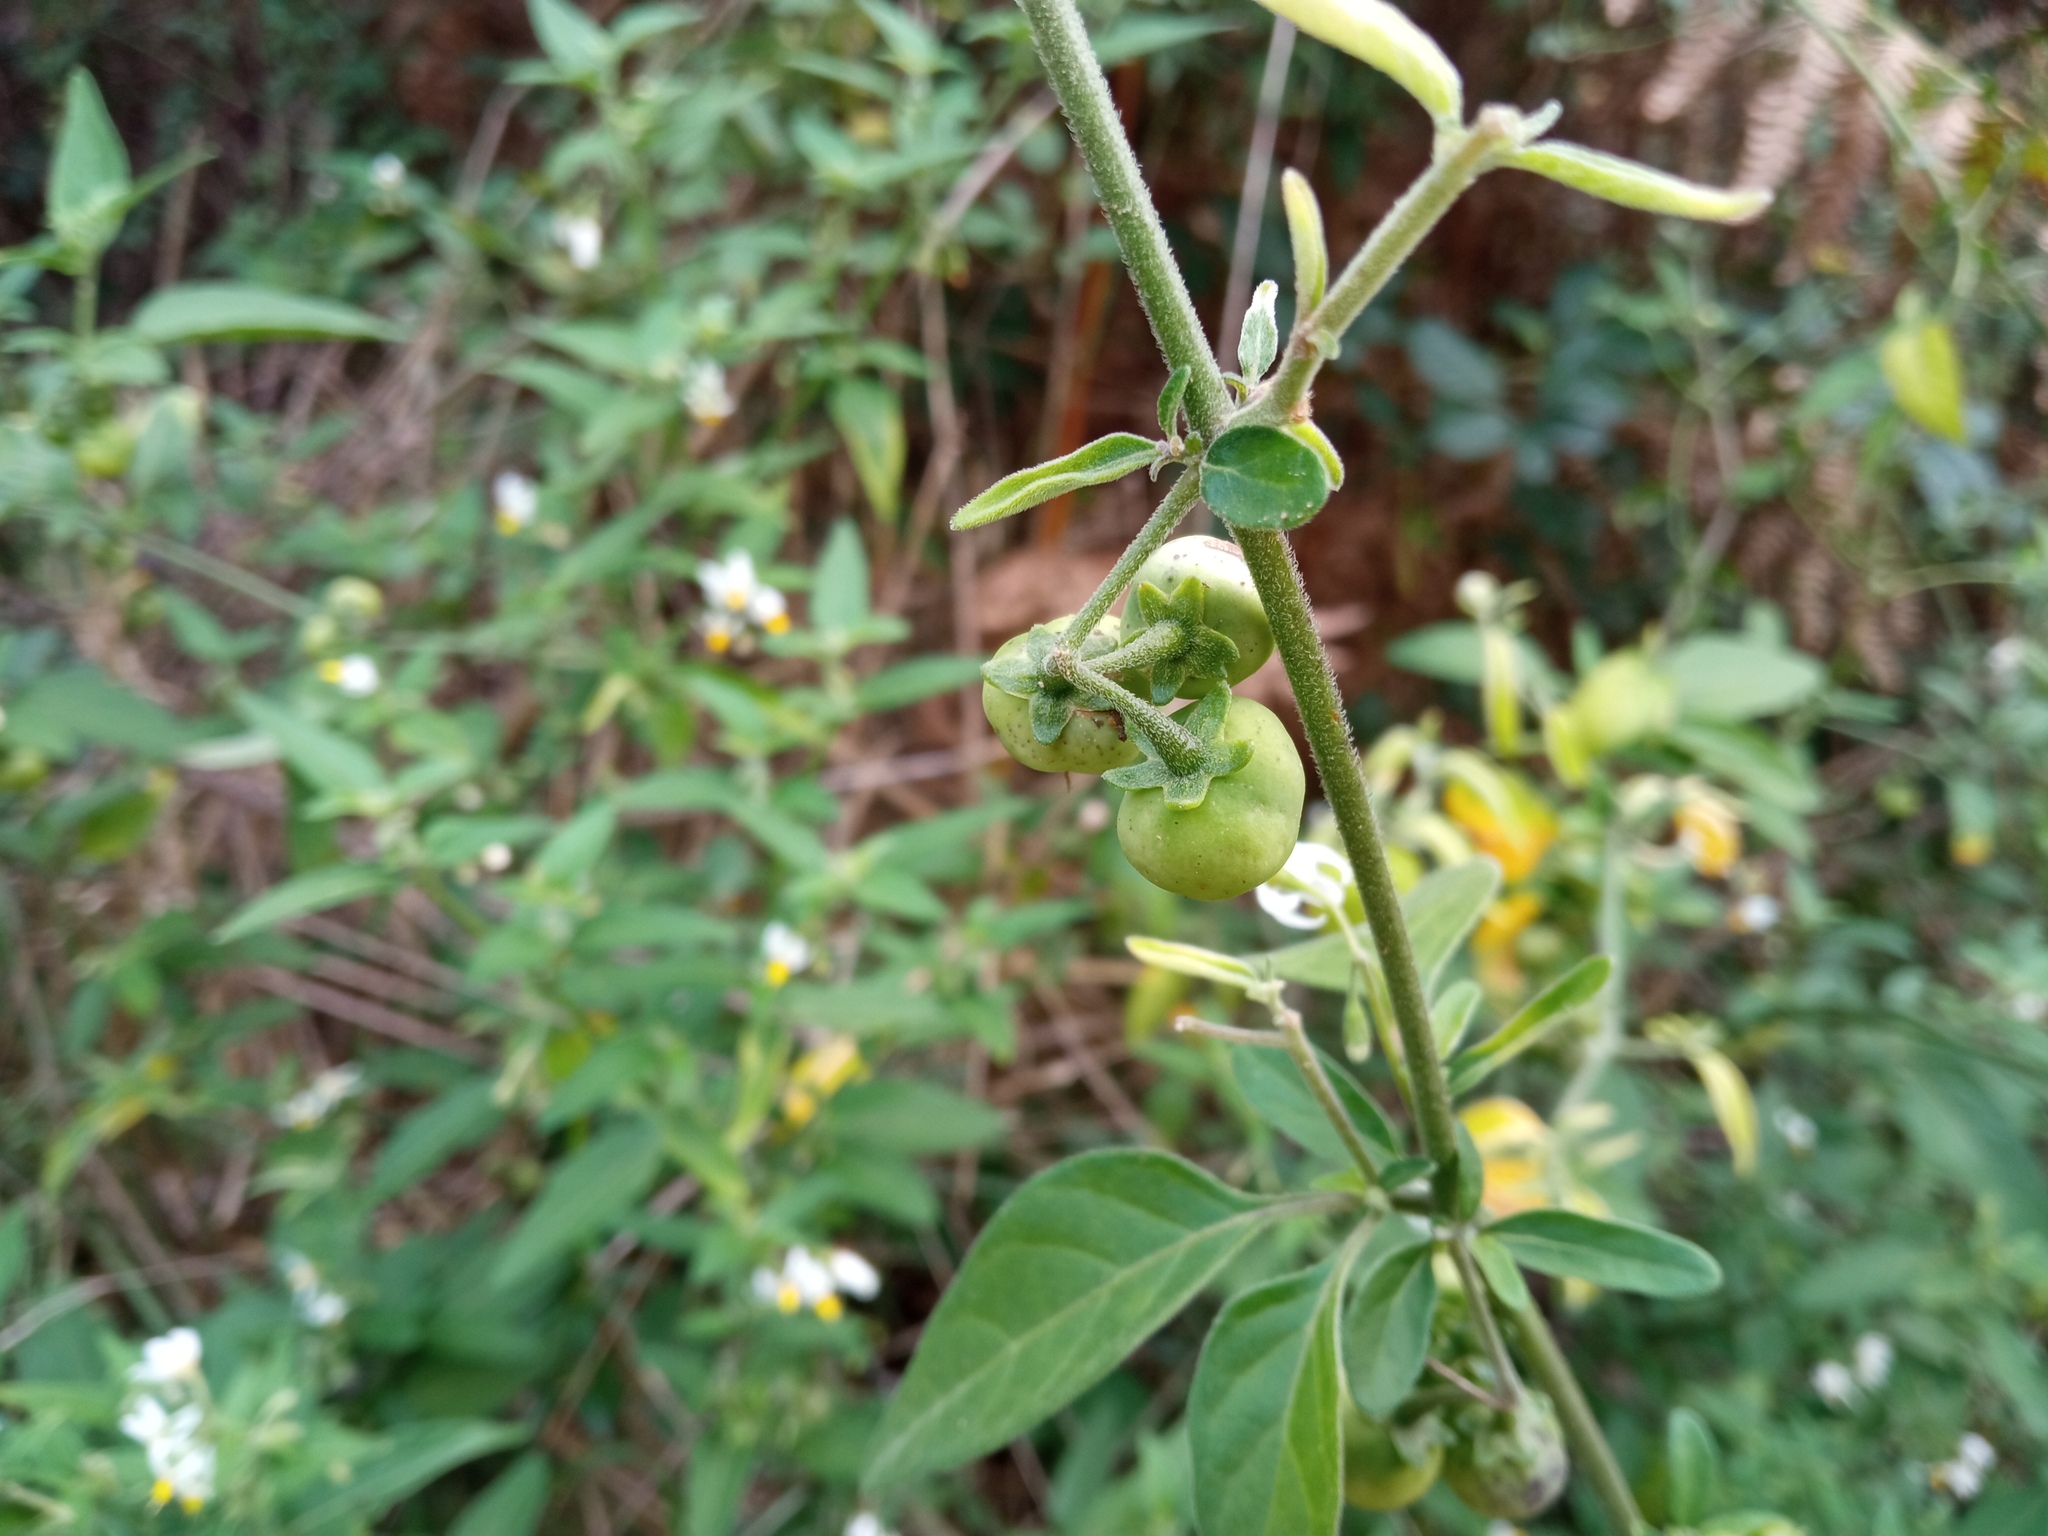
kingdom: Plantae
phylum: Tracheophyta
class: Magnoliopsida
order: Solanales
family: Solanaceae
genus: Solanum
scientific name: Solanum chenopodioides
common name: Tall nightshade
